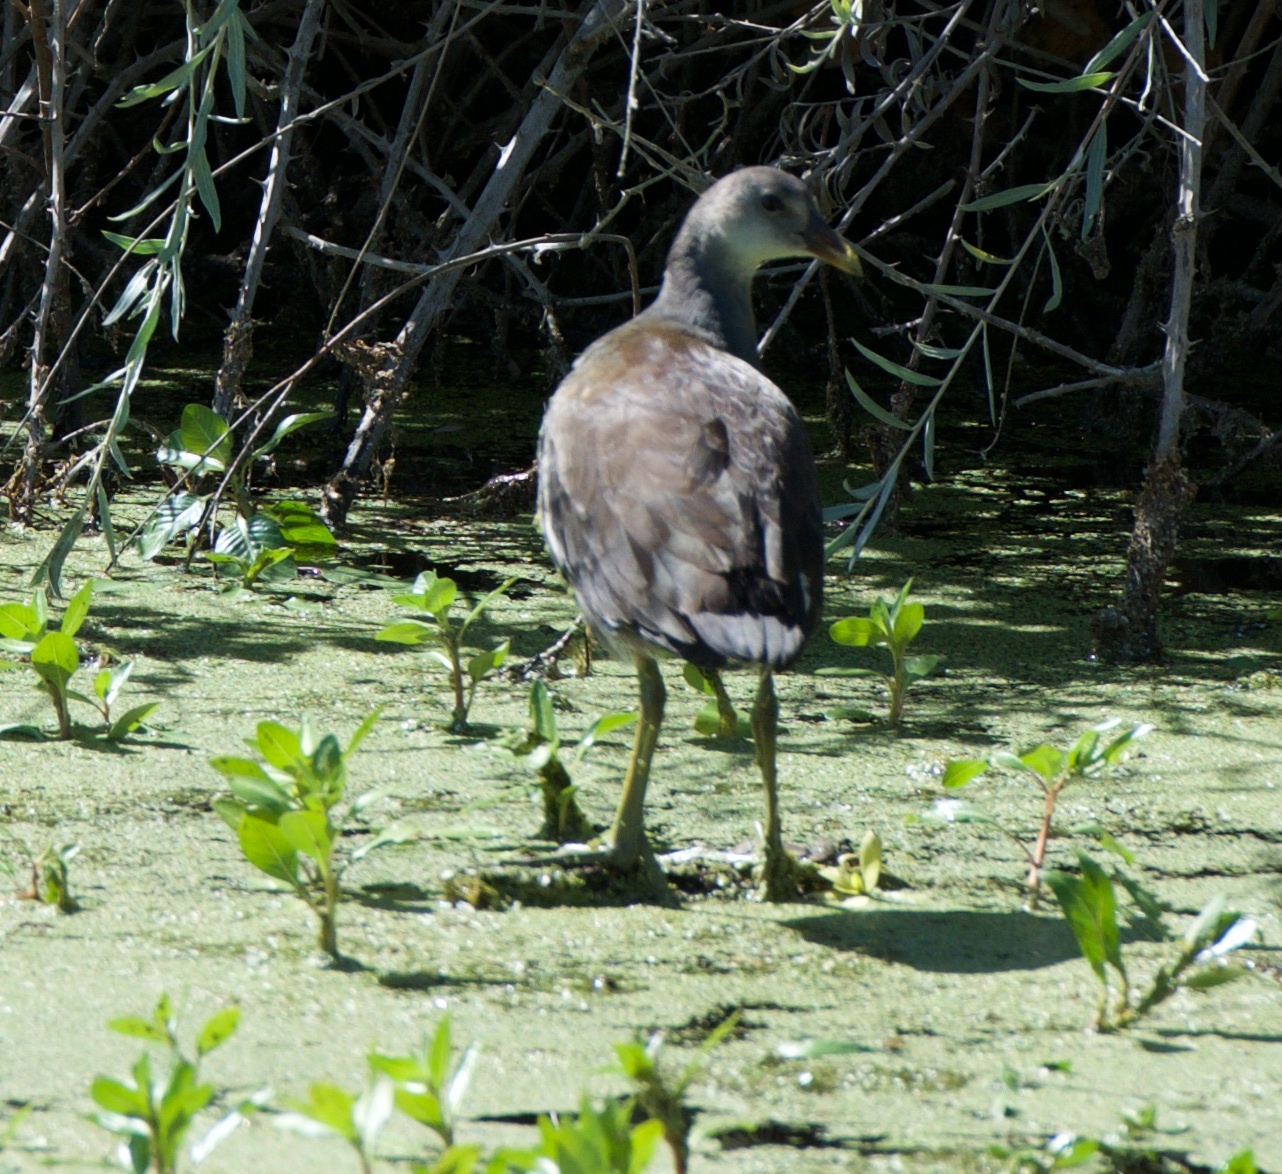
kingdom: Animalia
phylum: Chordata
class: Aves
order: Gruiformes
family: Rallidae
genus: Gallinula
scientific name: Gallinula chloropus
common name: Common moorhen
